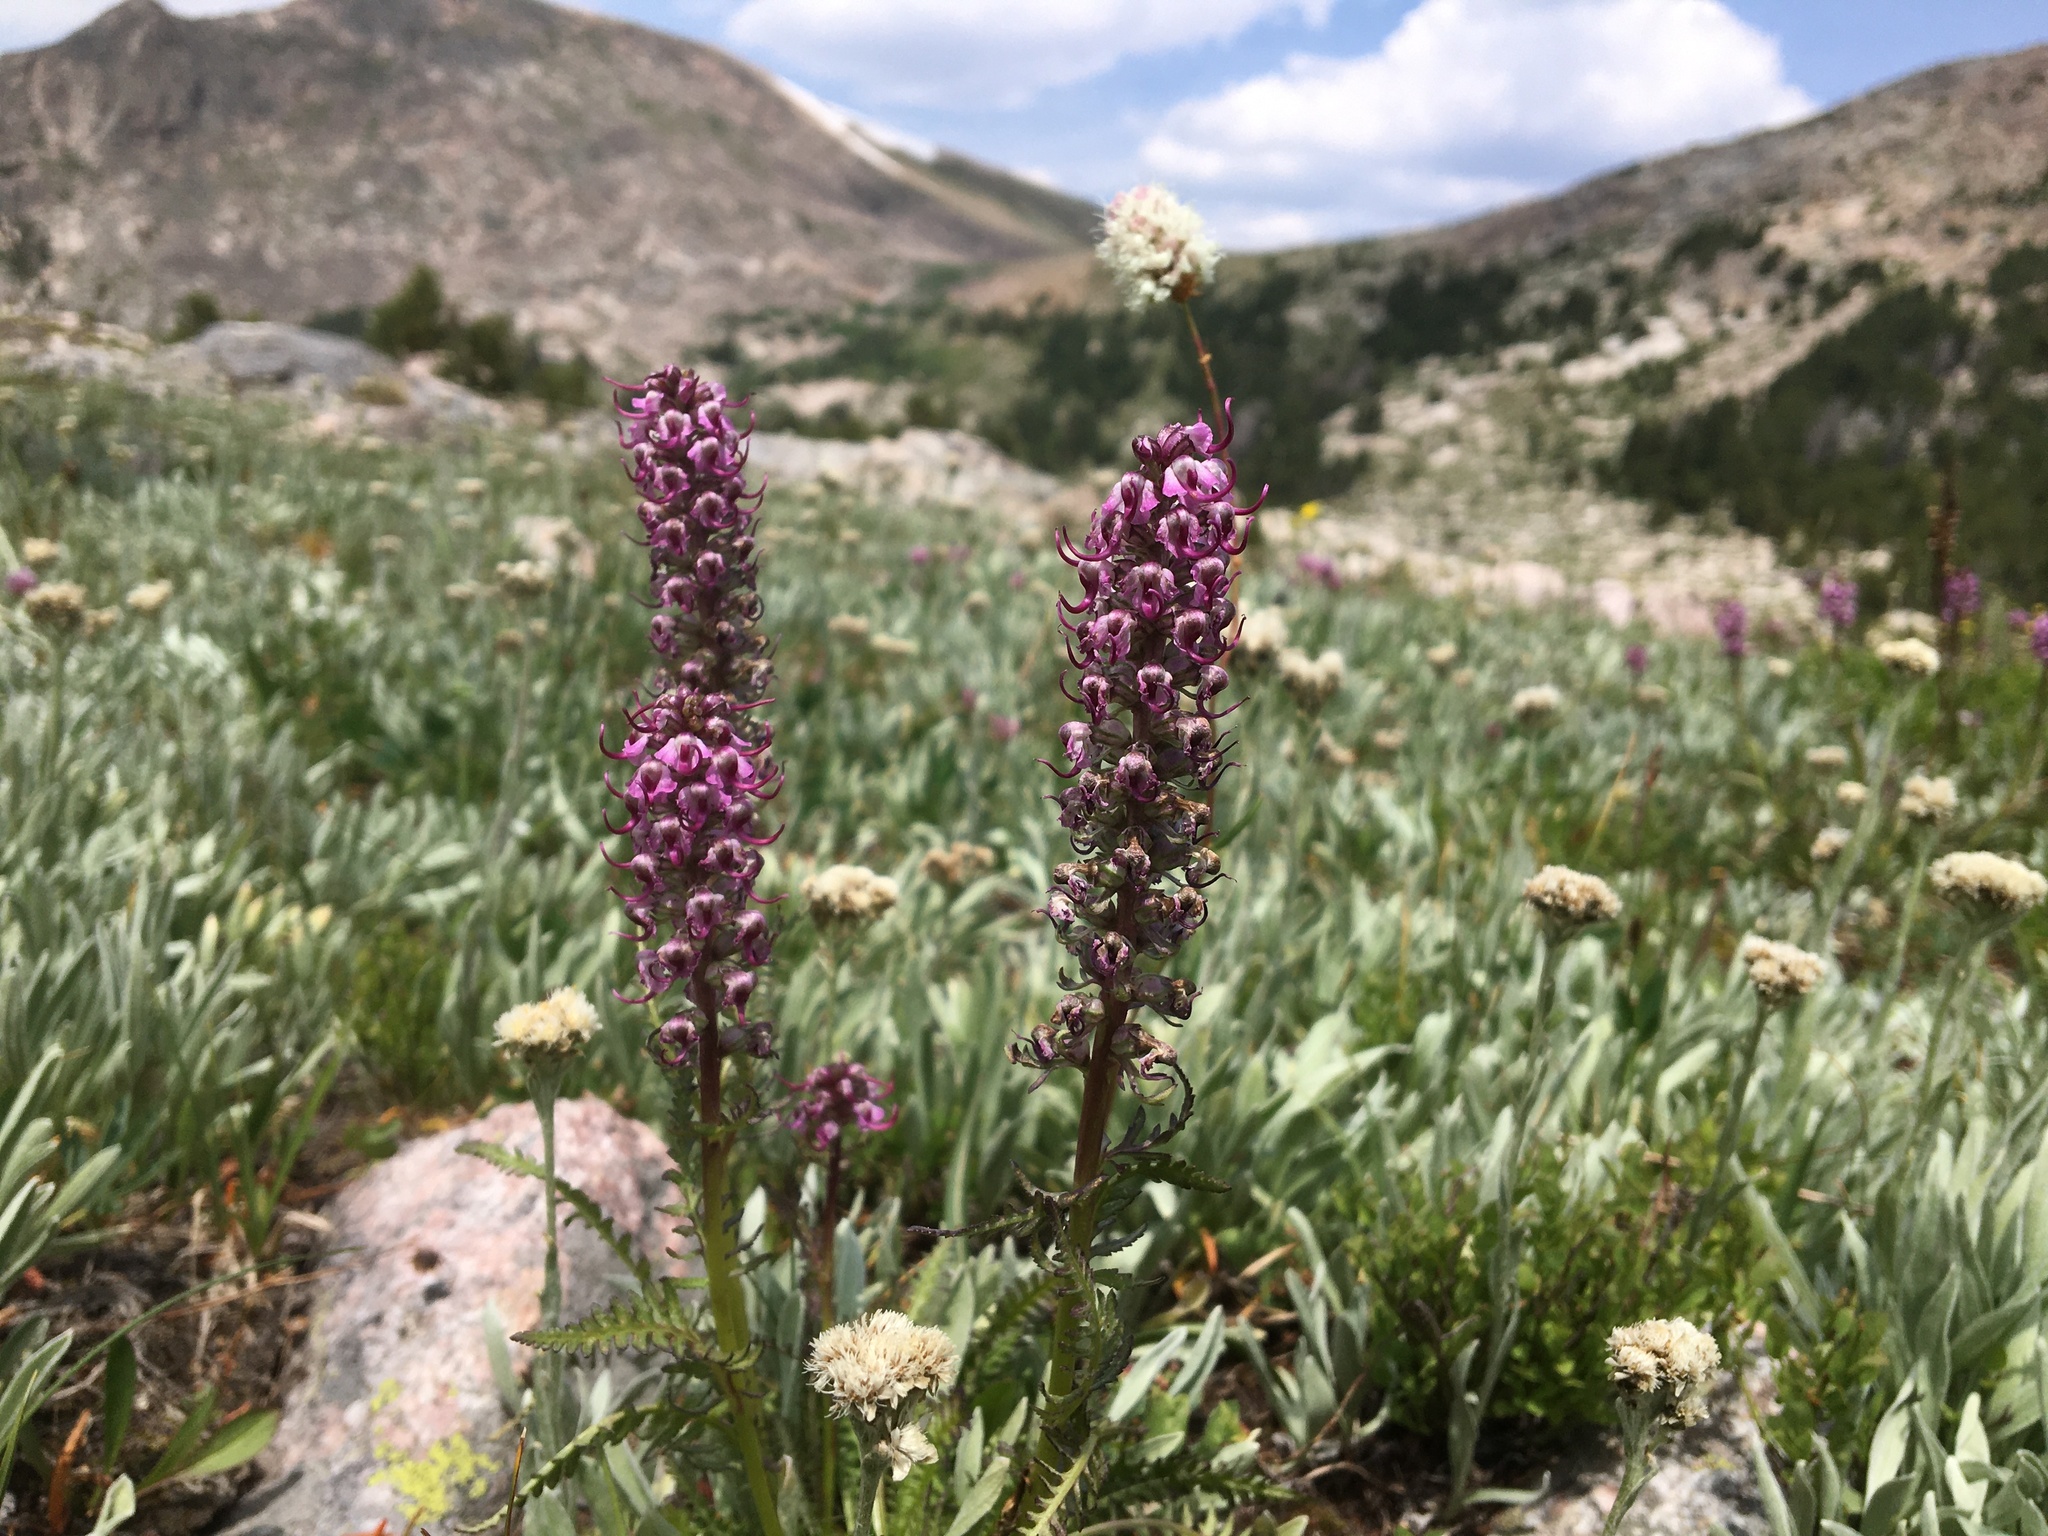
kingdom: Plantae
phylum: Tracheophyta
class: Magnoliopsida
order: Lamiales
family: Orobanchaceae
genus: Pedicularis
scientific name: Pedicularis groenlandica
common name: Elephant's-head
